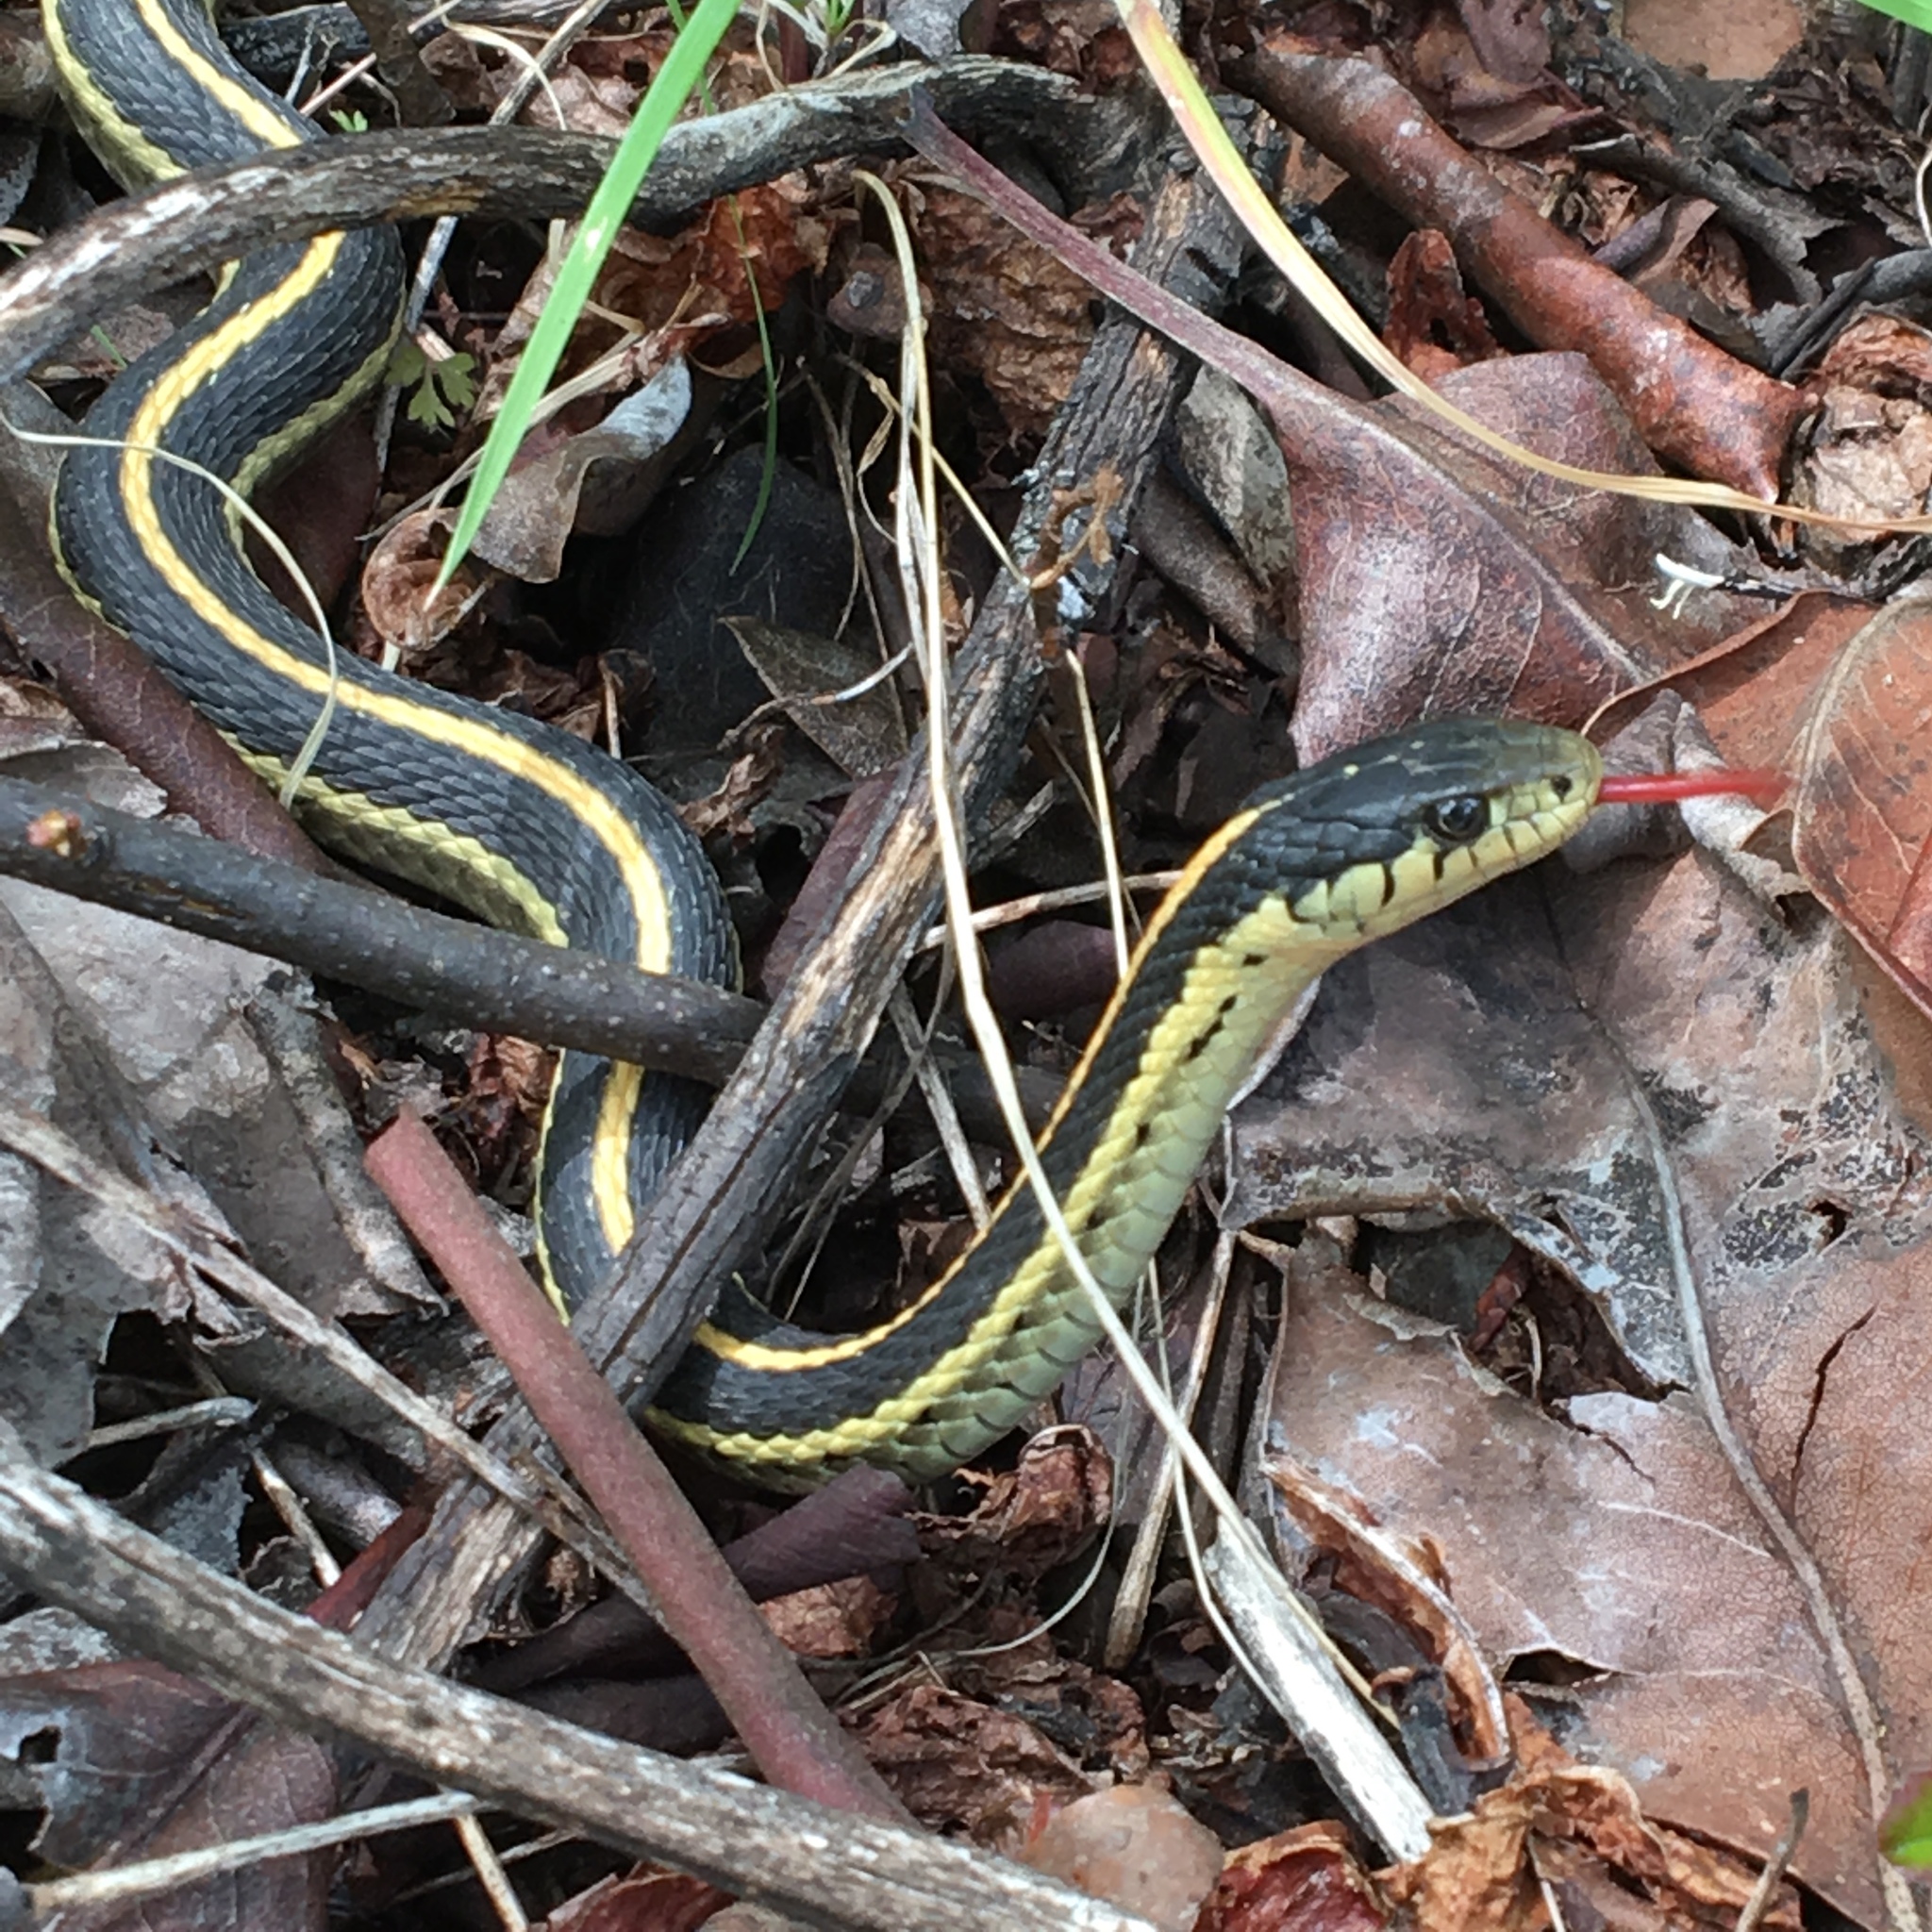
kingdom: Animalia
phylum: Chordata
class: Squamata
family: Colubridae
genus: Thamnophis
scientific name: Thamnophis elegans
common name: Western terrestrial garter snake
